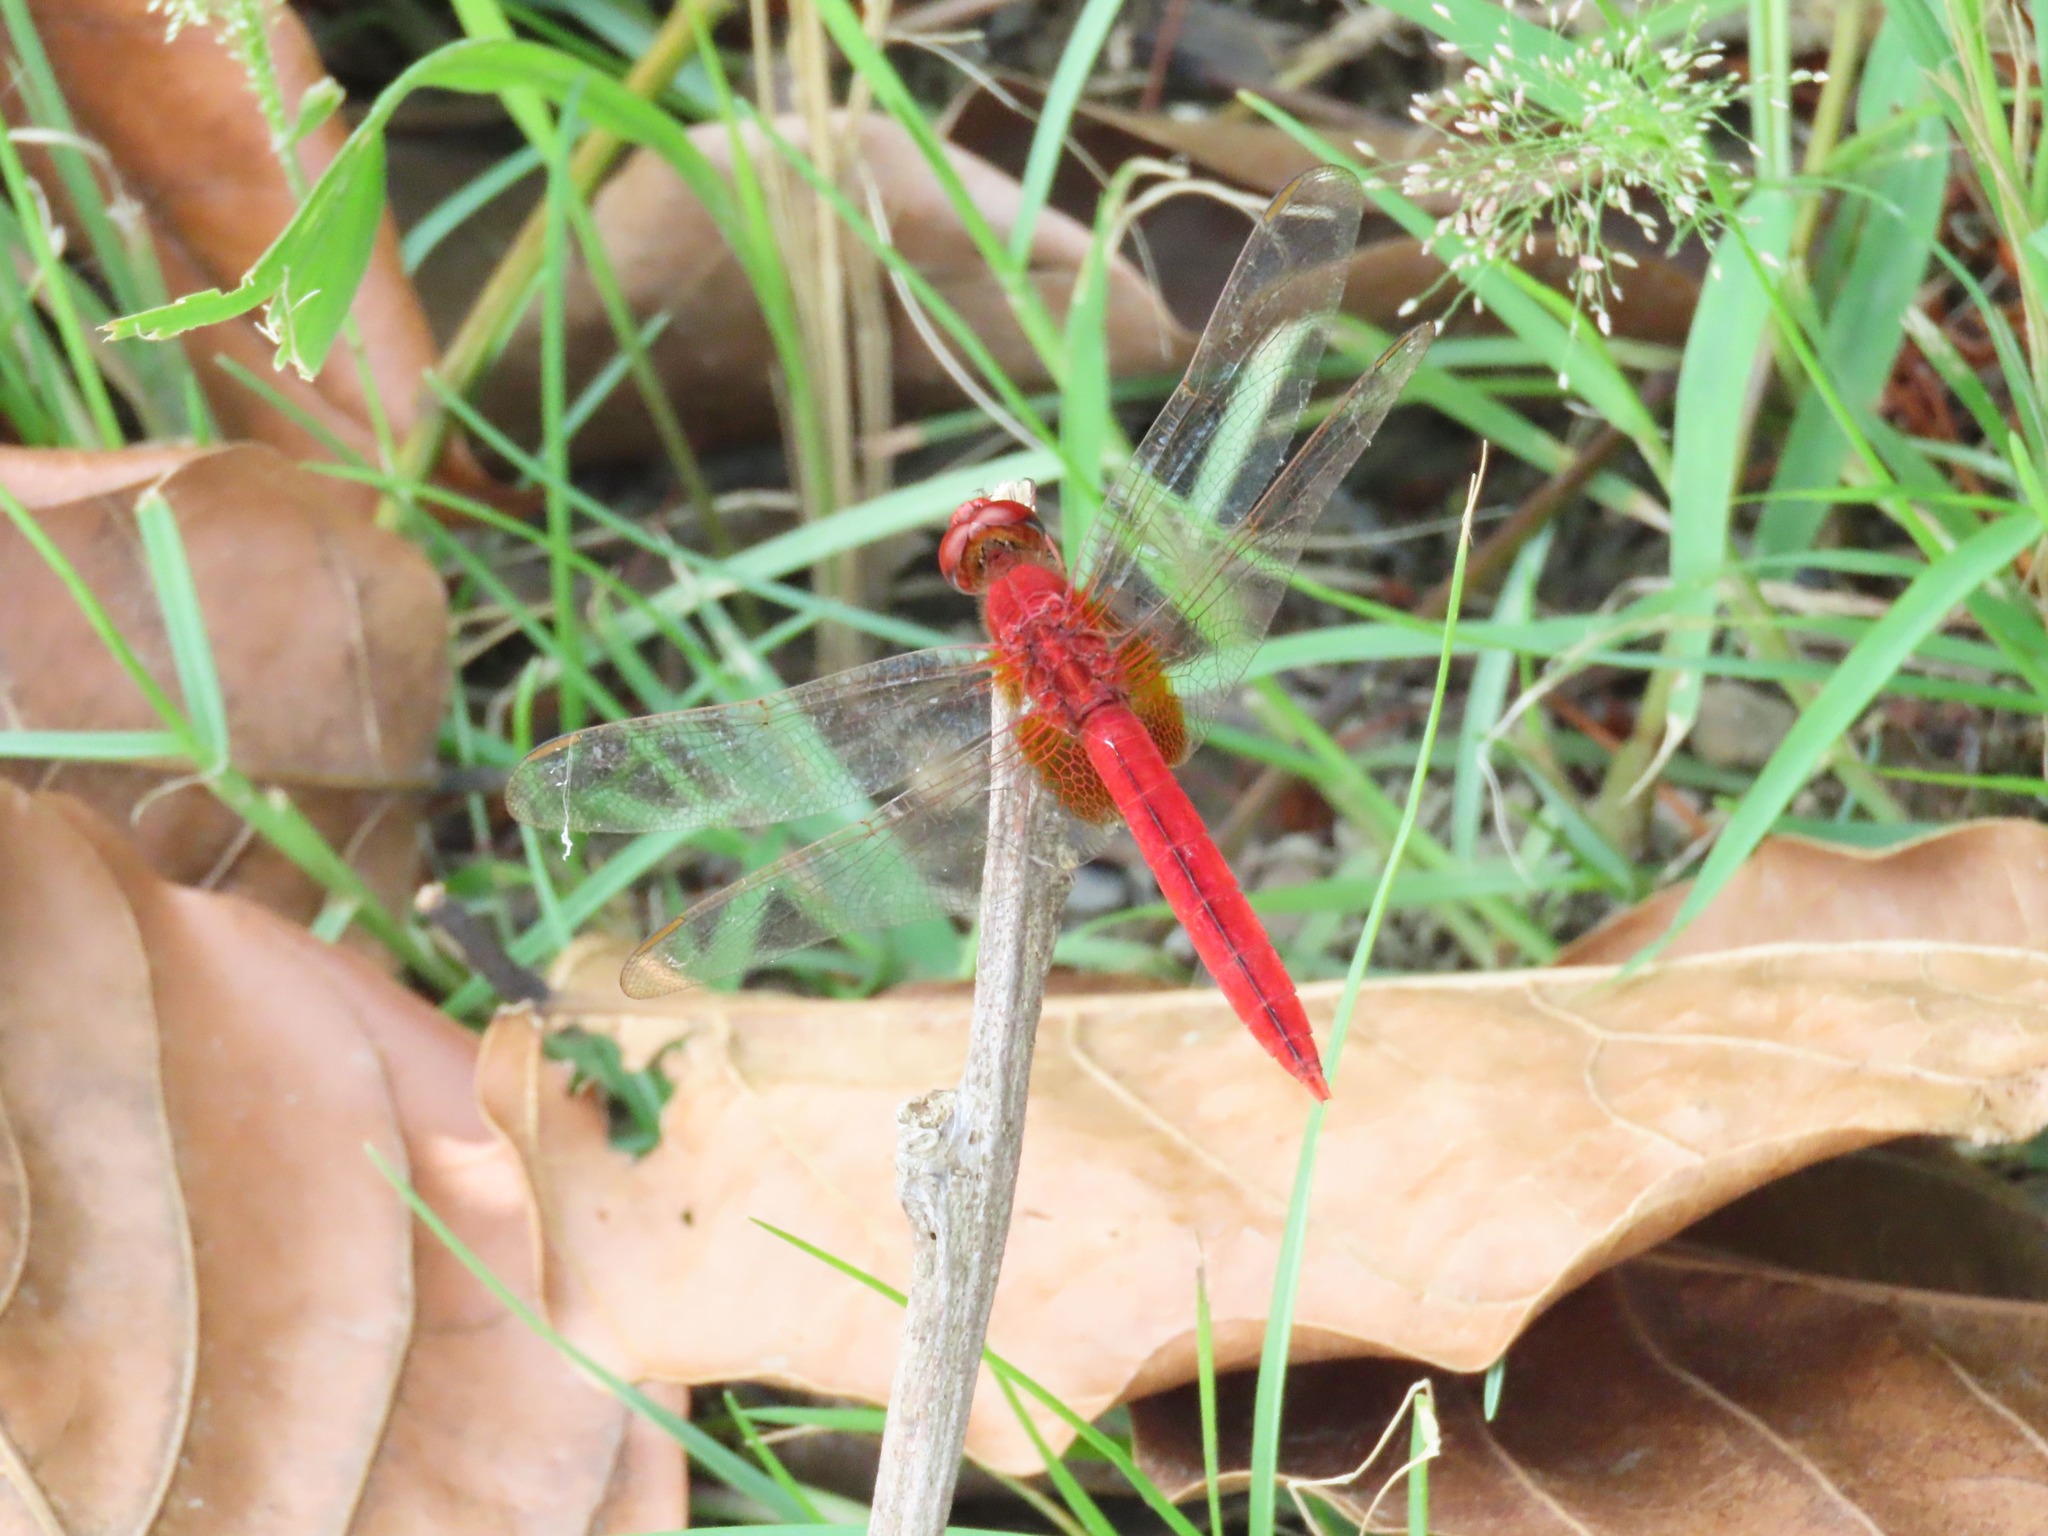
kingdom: Animalia
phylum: Arthropoda
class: Insecta
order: Odonata
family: Libellulidae
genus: Crocothemis
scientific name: Crocothemis servilia
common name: Scarlet skimmer
